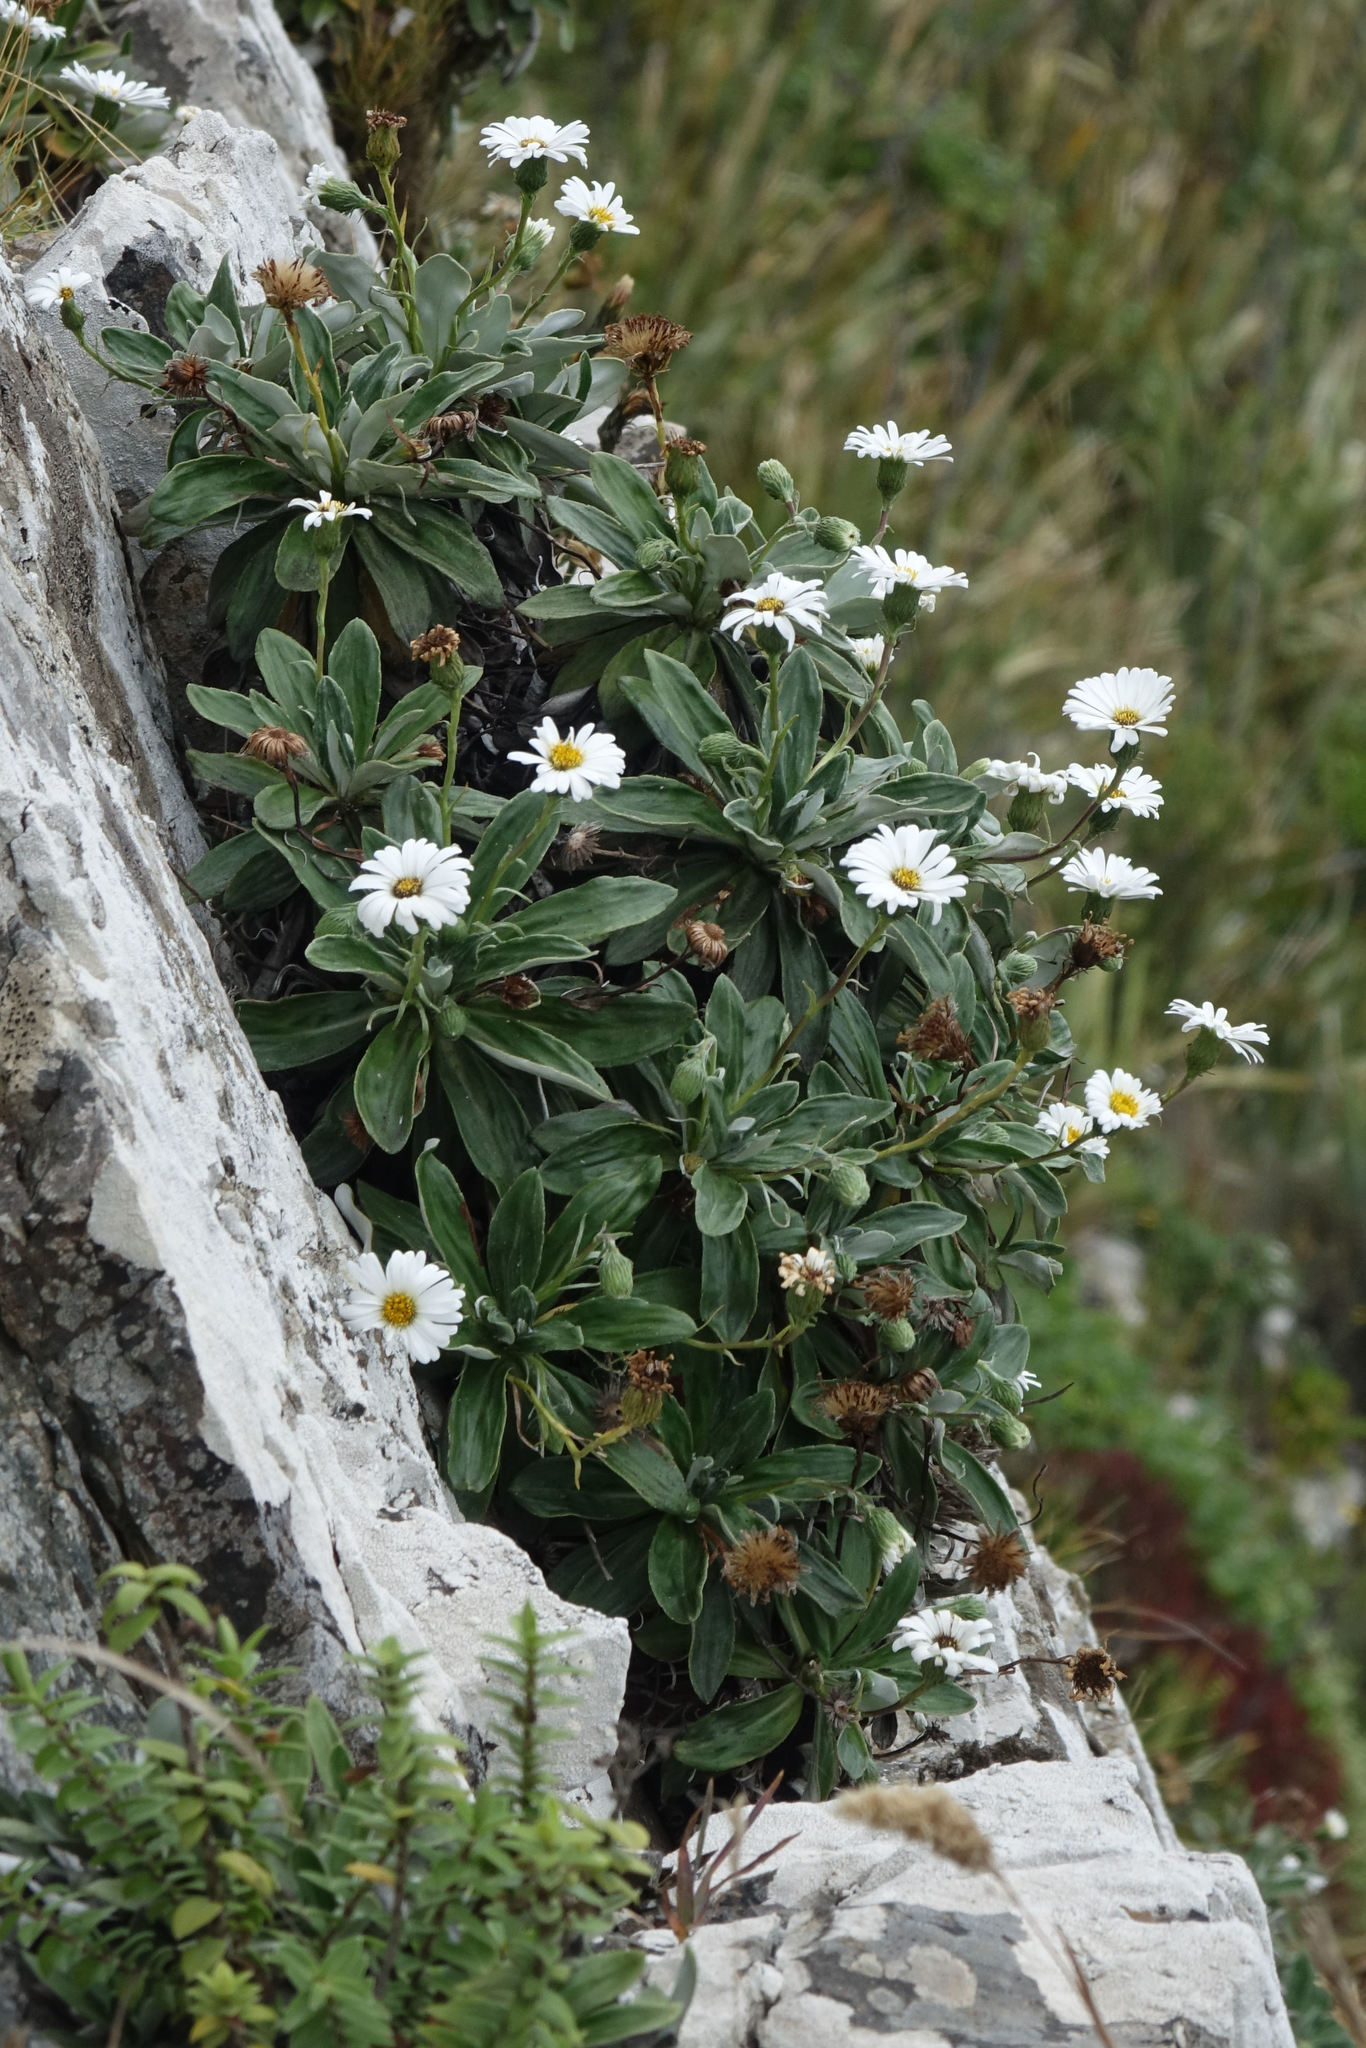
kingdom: Plantae
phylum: Tracheophyta
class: Magnoliopsida
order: Asterales
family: Asteraceae
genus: Celmisia
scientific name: Celmisia lindsayi
